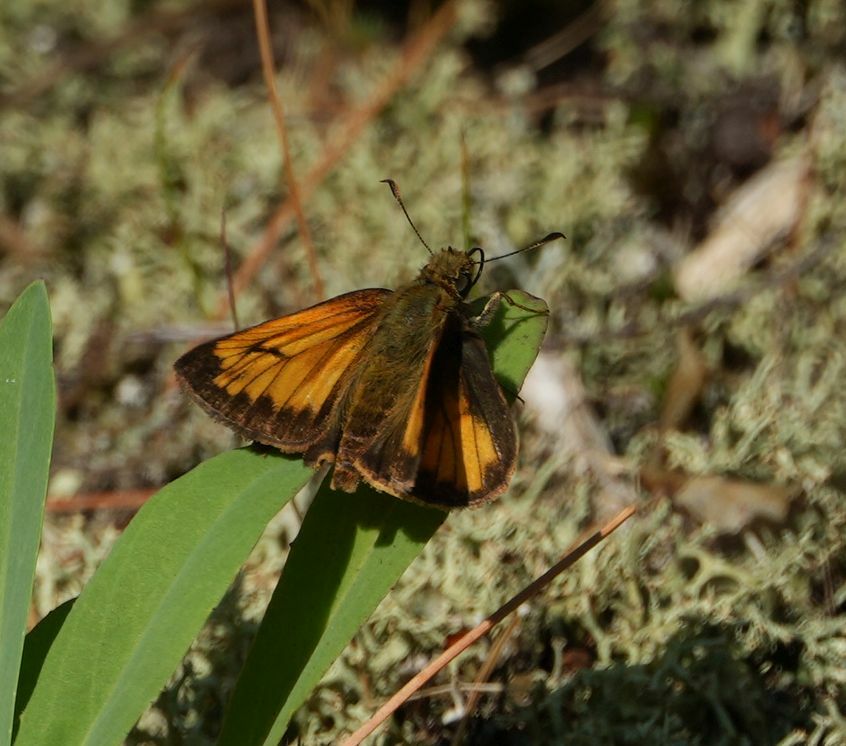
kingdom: Animalia
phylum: Arthropoda
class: Insecta
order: Lepidoptera
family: Hesperiidae
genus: Lon
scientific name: Lon hobomok
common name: Hobomok skipper
